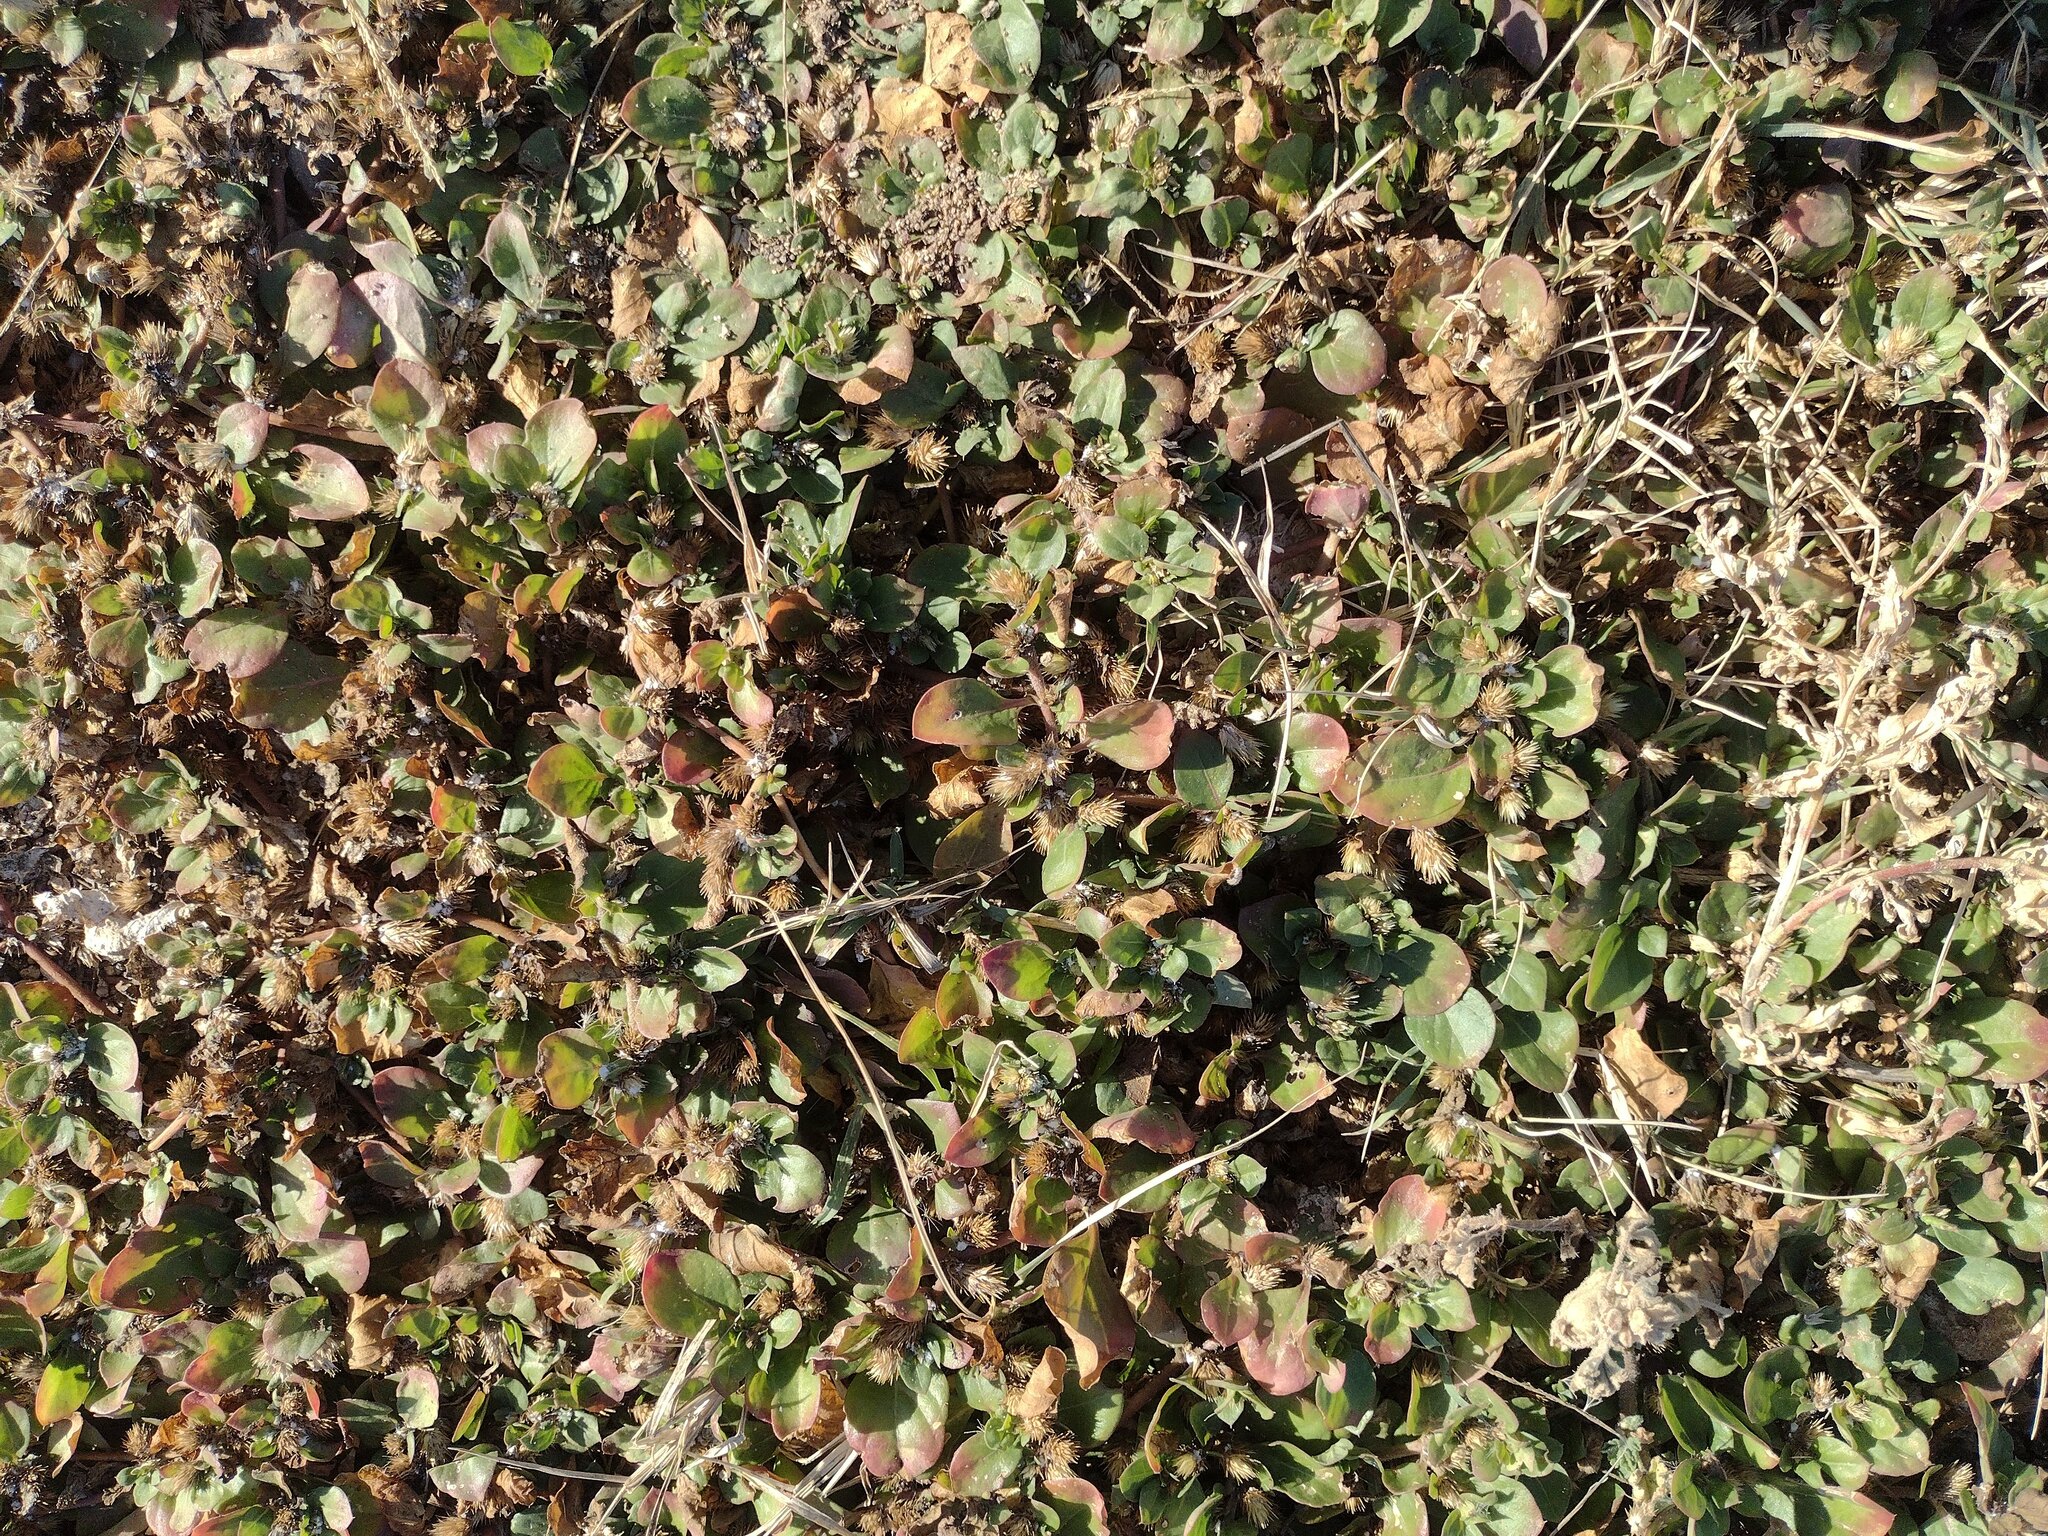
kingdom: Plantae
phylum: Tracheophyta
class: Magnoliopsida
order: Caryophyllales
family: Amaranthaceae
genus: Alternanthera
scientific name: Alternanthera pungens
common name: Khakiweed
